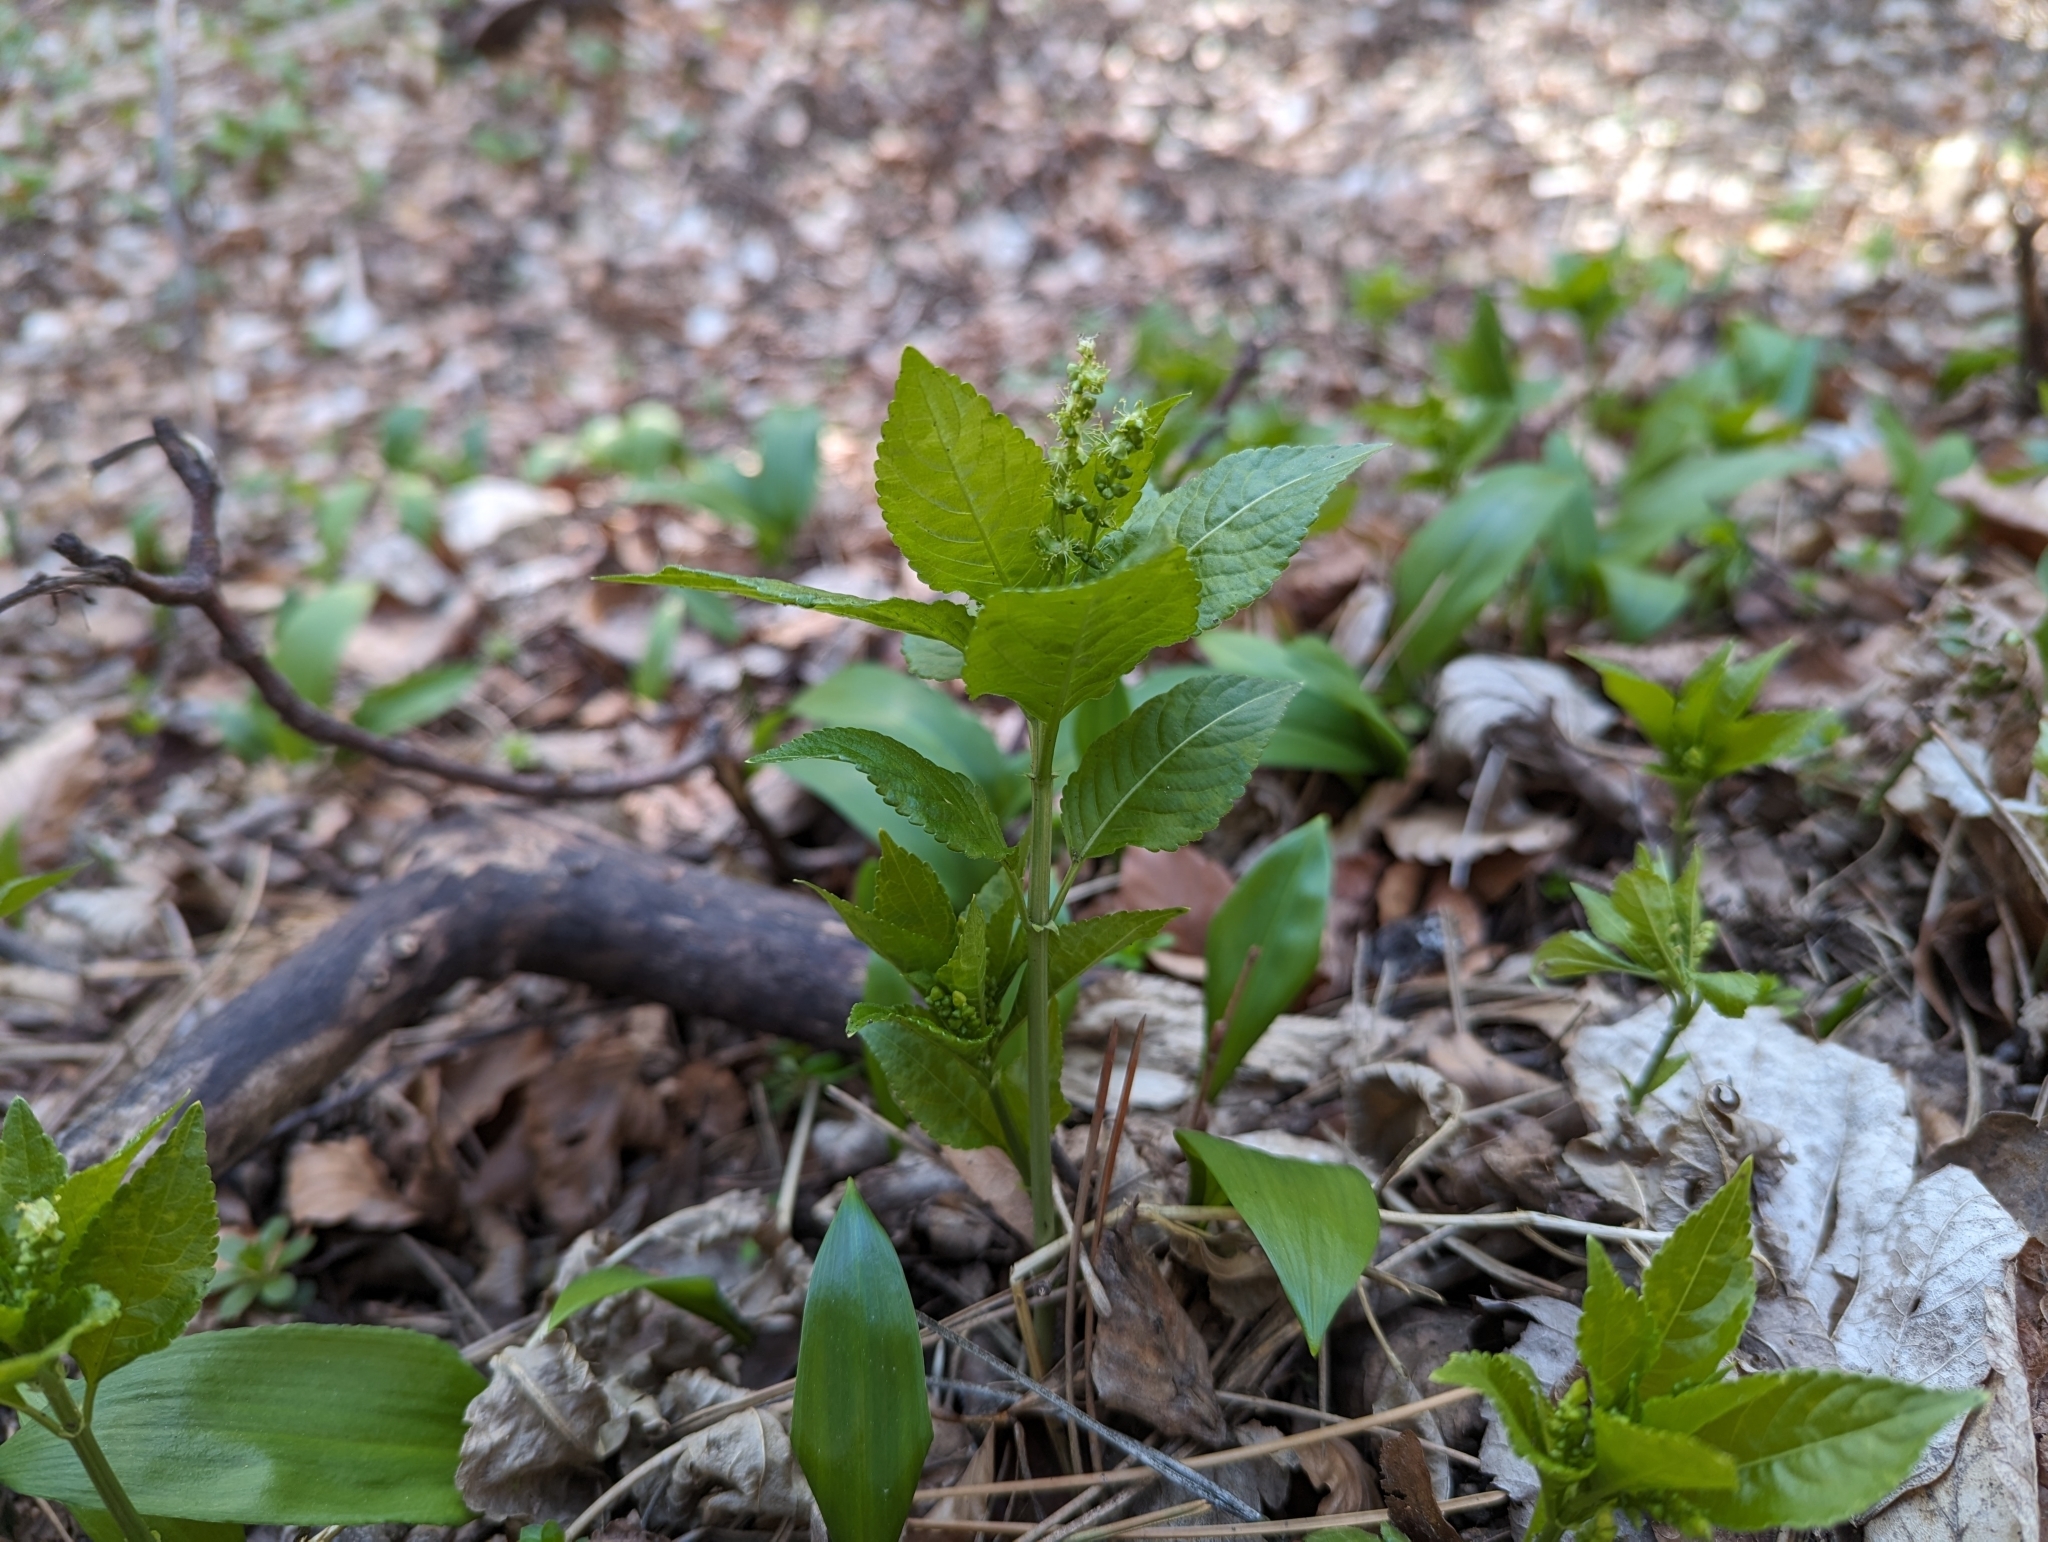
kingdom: Plantae
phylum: Tracheophyta
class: Magnoliopsida
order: Malpighiales
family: Euphorbiaceae
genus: Mercurialis
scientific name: Mercurialis perennis
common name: Dog mercury
